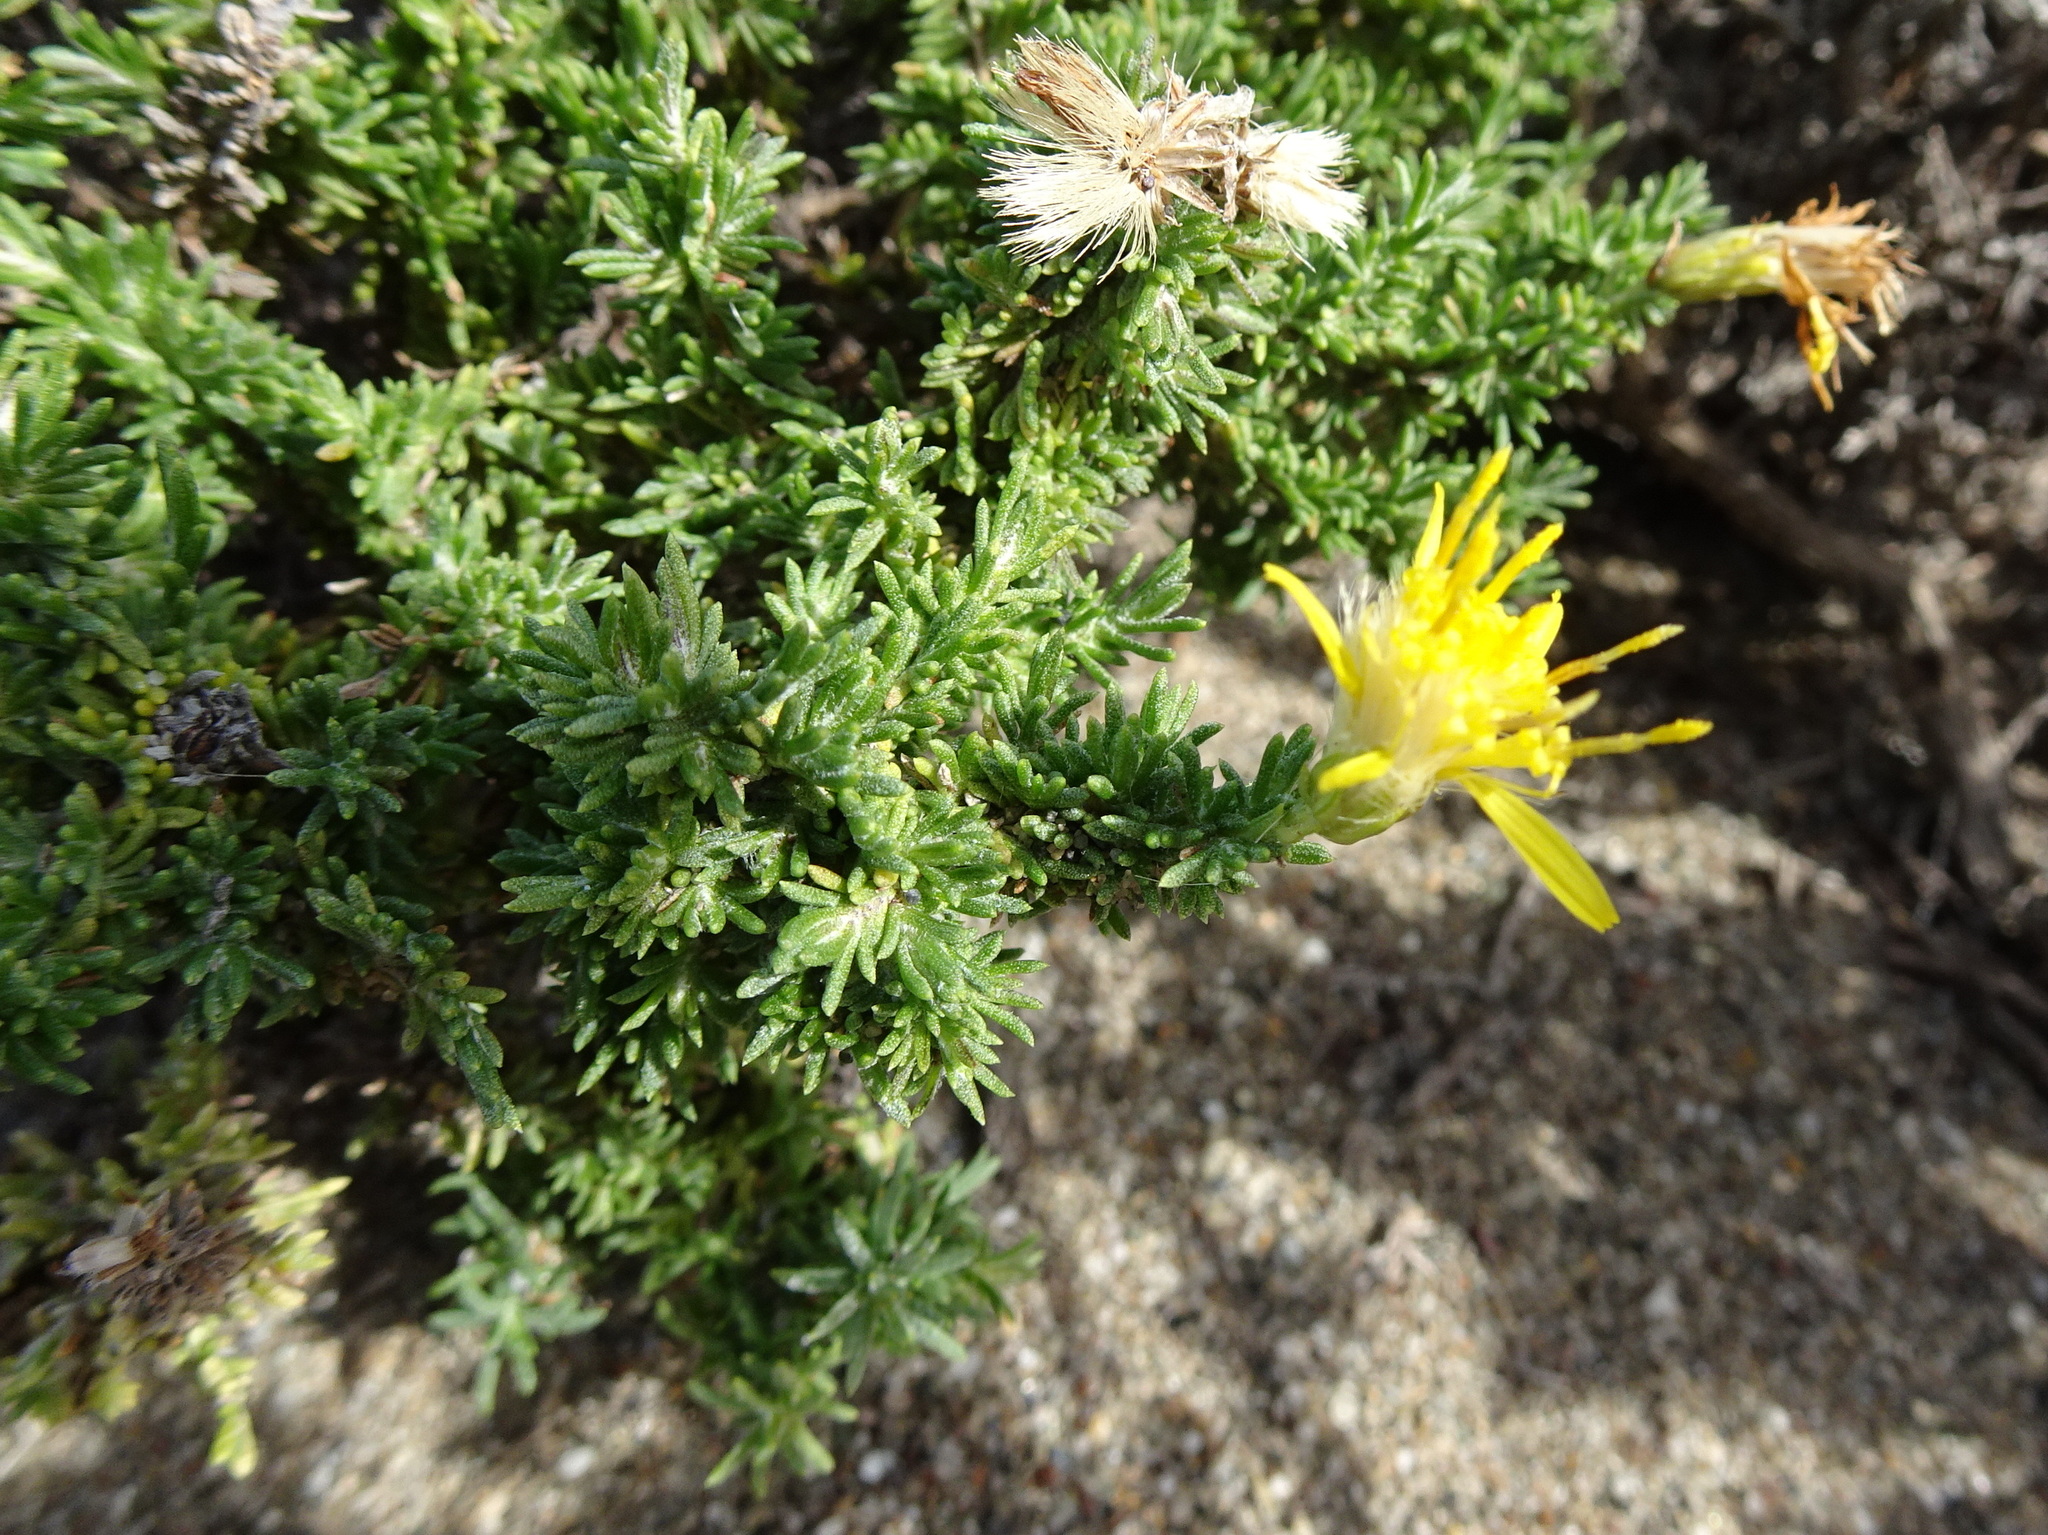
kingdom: Plantae
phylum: Tracheophyta
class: Magnoliopsida
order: Asterales
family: Asteraceae
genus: Ericameria
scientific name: Ericameria ericoides
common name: California goldenbush
